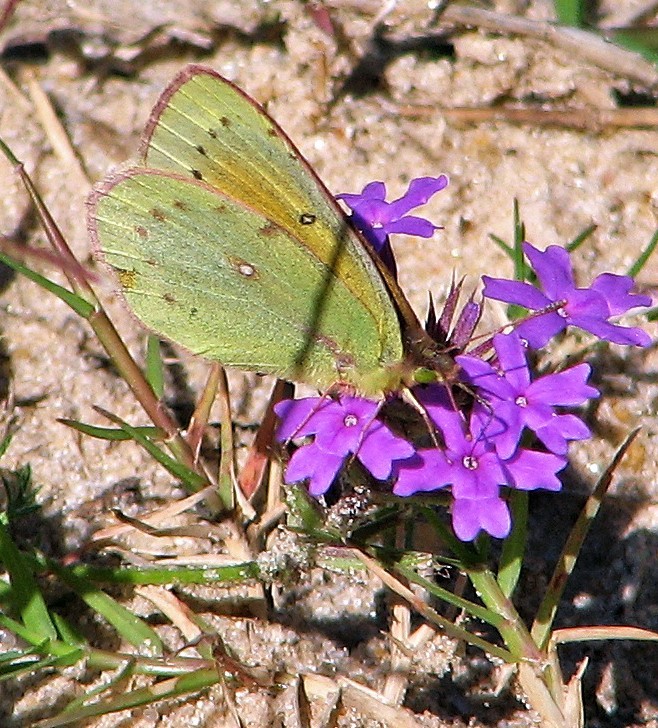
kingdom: Animalia
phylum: Arthropoda
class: Insecta
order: Lepidoptera
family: Pieridae
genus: Colias
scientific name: Colias lesbia
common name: Lesbia clouded yellow
